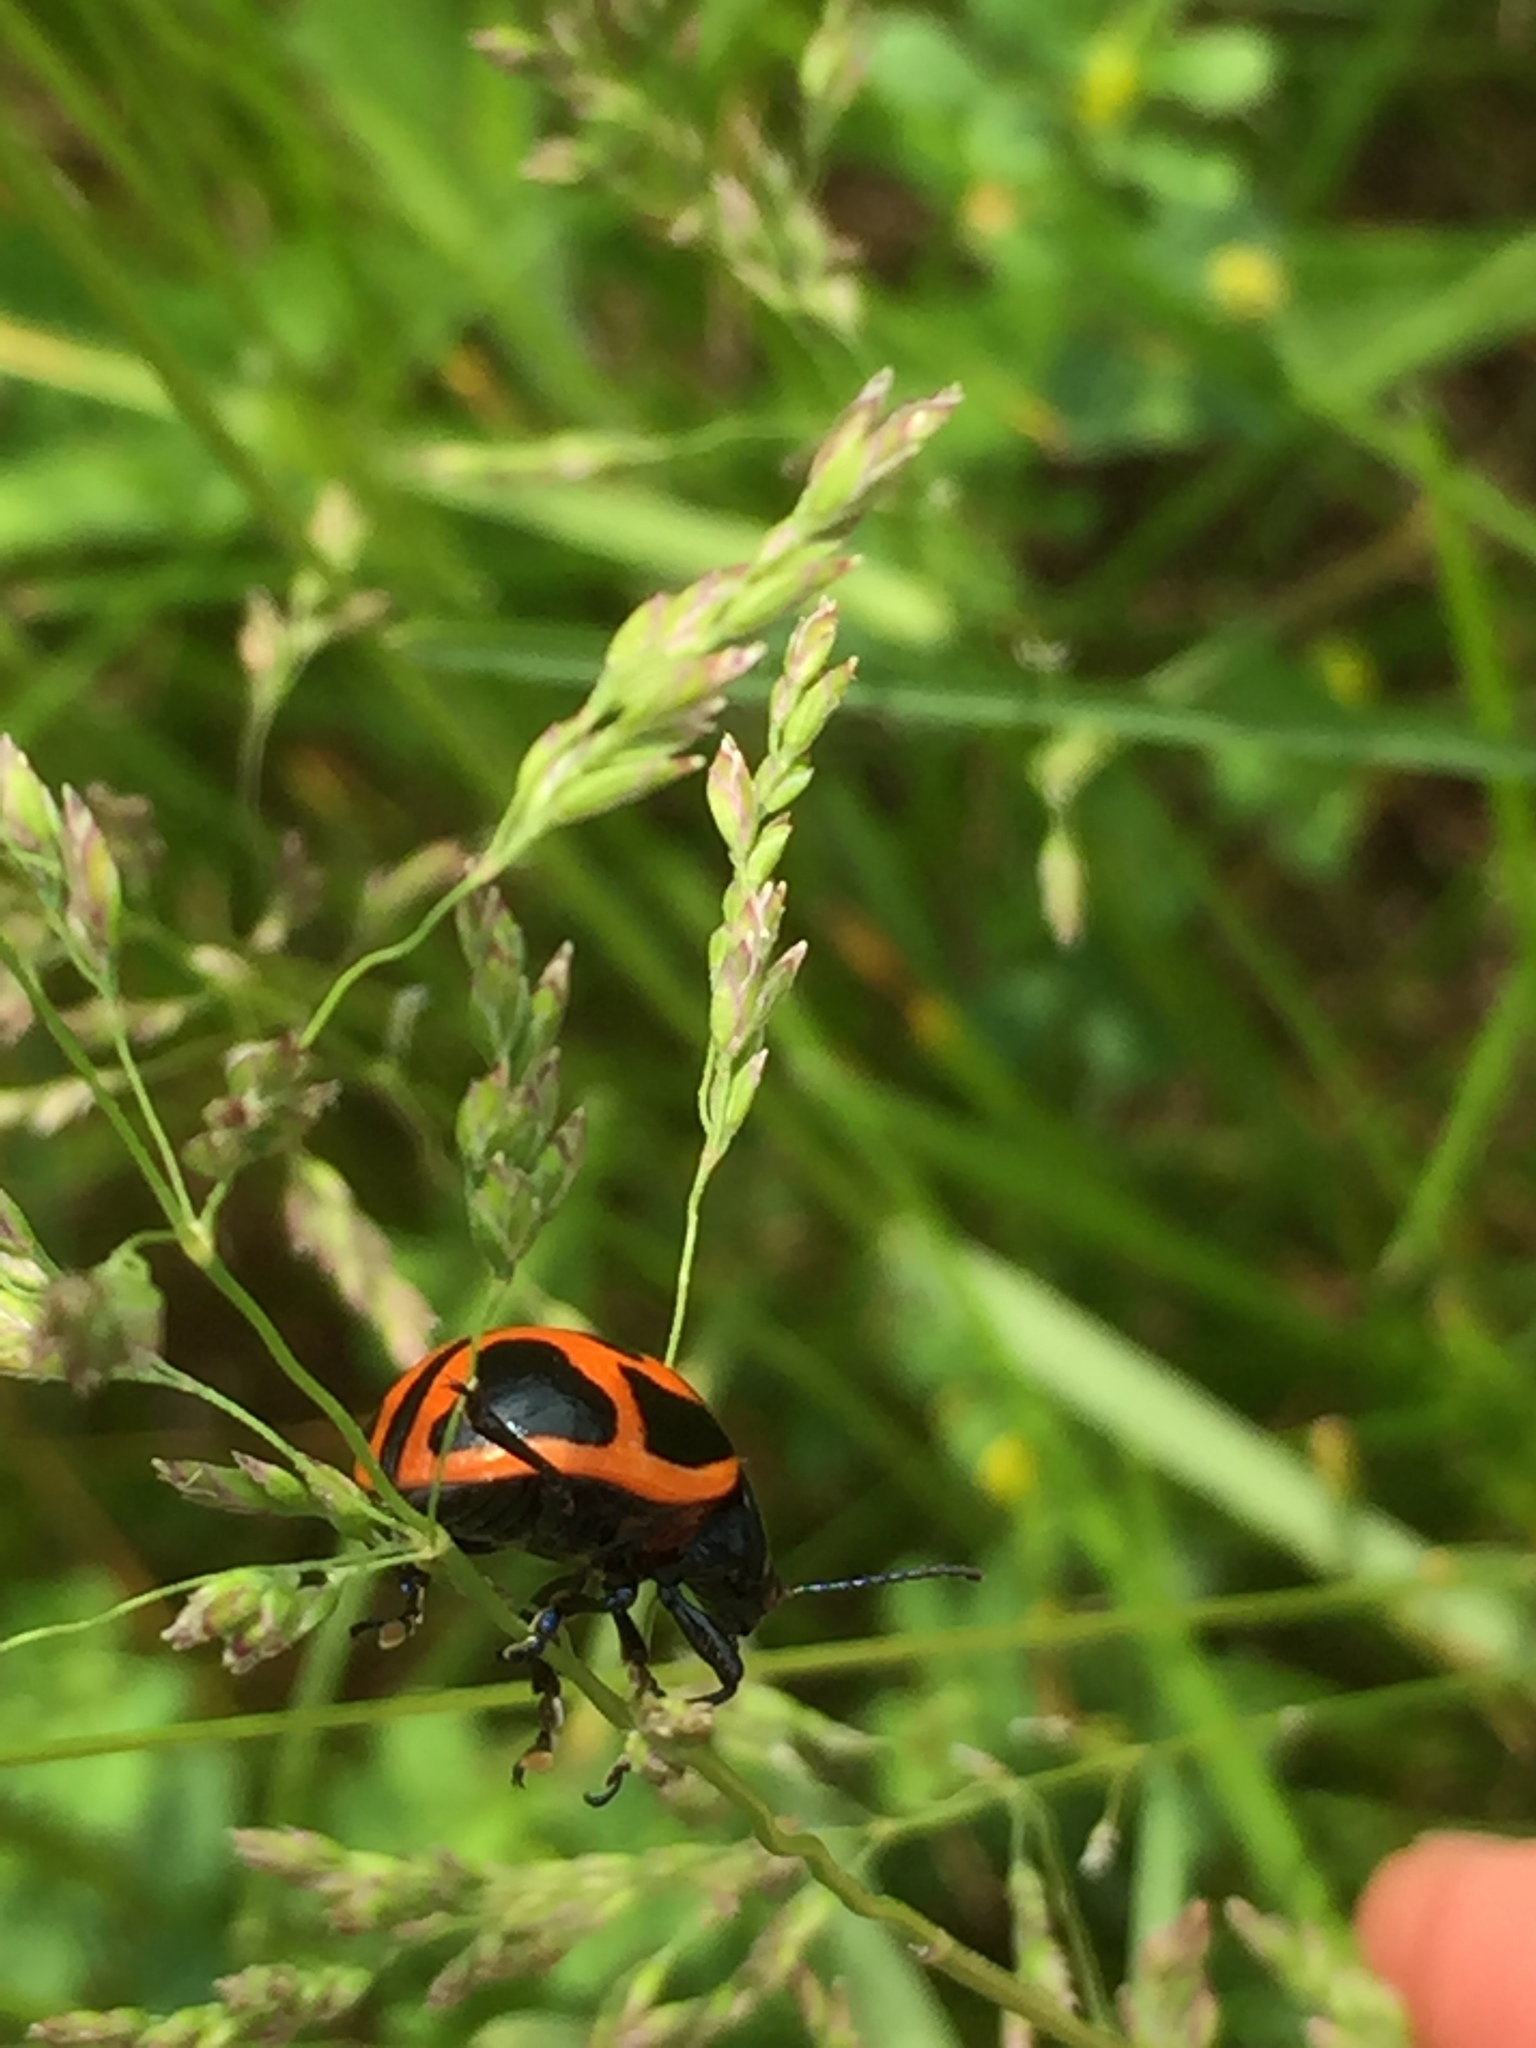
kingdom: Animalia
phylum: Arthropoda
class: Insecta
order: Coleoptera
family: Chrysomelidae
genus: Labidomera
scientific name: Labidomera clivicollis
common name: Swamp milkweed leaf beetle
